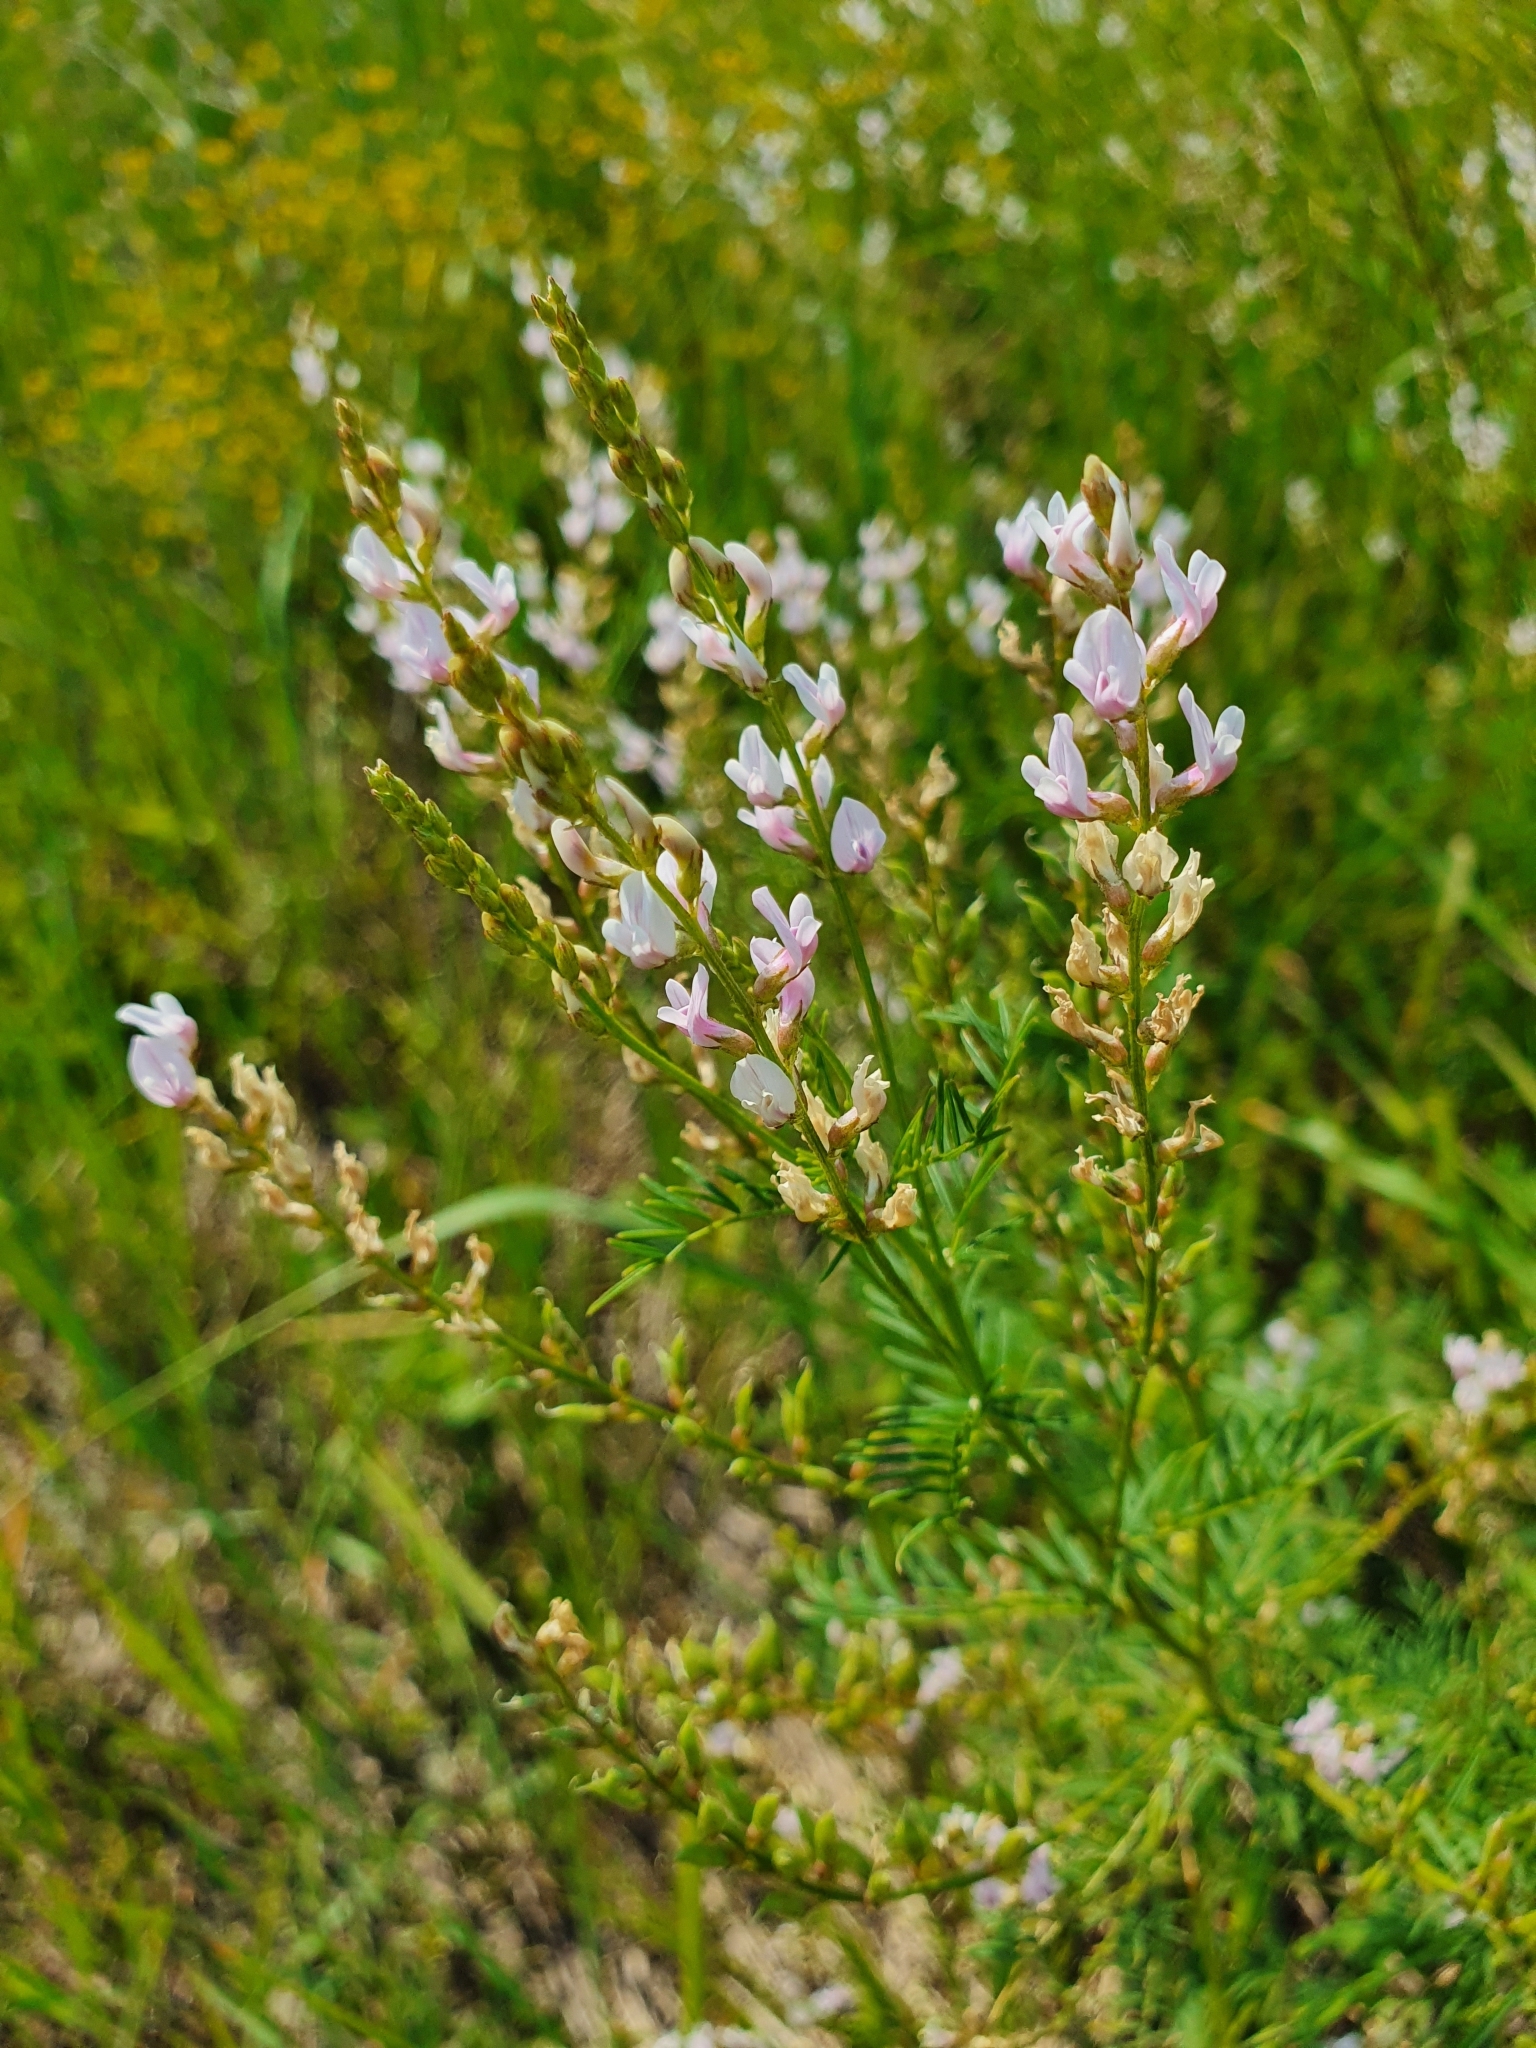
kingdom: Plantae
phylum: Tracheophyta
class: Magnoliopsida
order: Fabales
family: Fabaceae
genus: Astragalus
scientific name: Astragalus sulcatus
